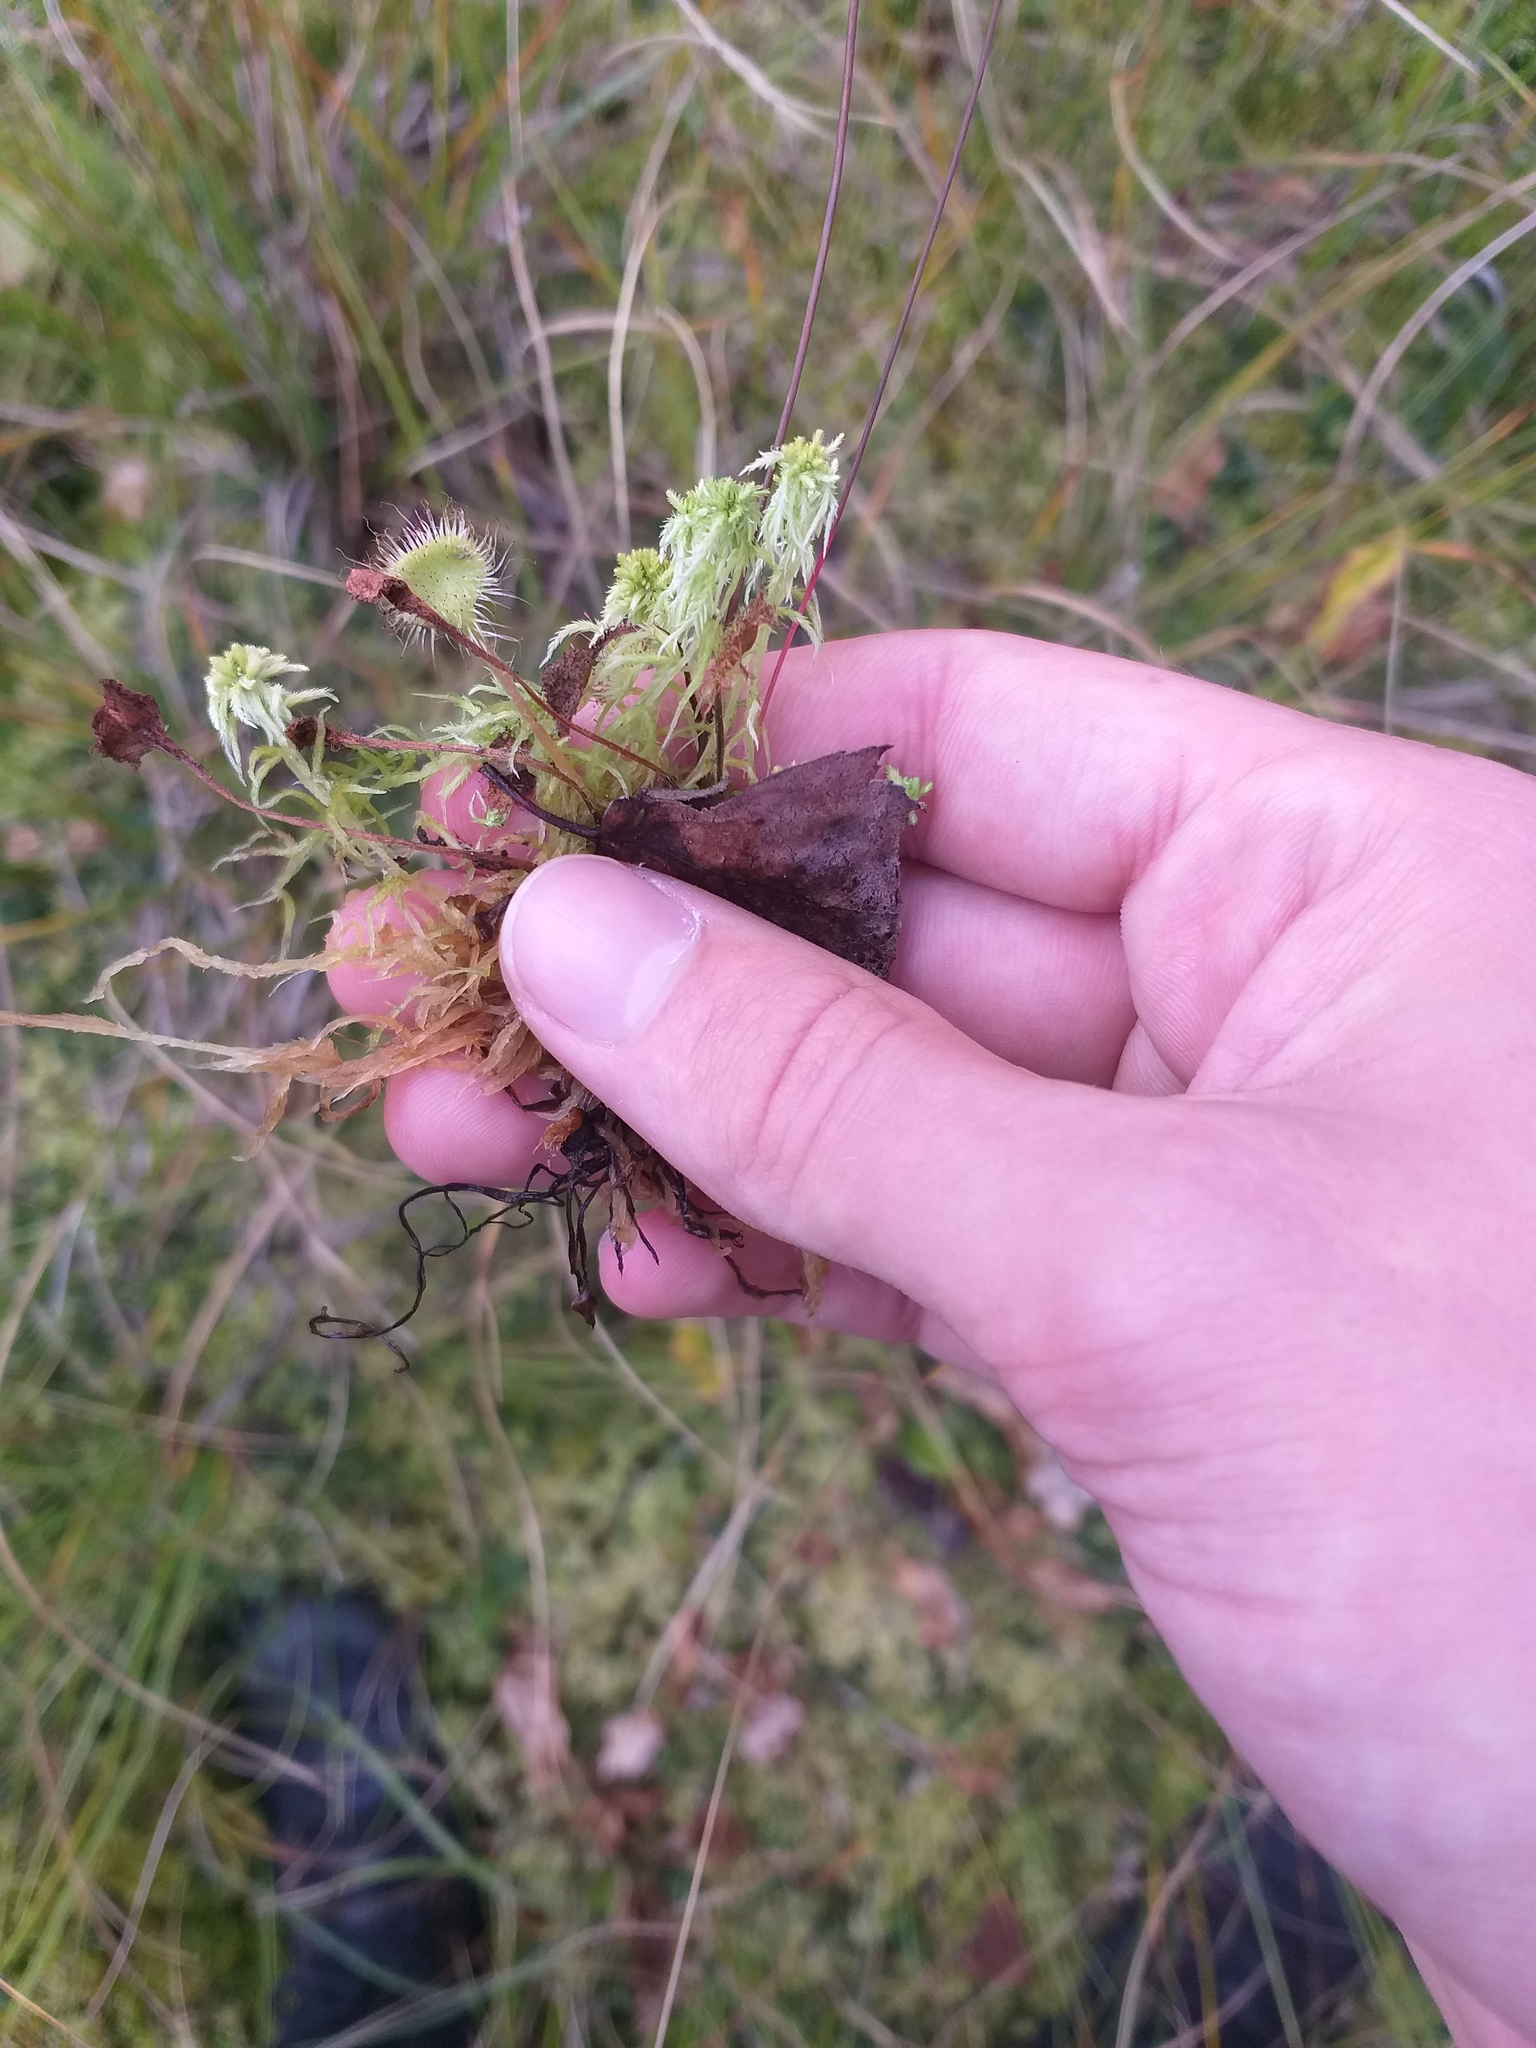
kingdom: Plantae
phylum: Tracheophyta
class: Magnoliopsida
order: Caryophyllales
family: Droseraceae
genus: Drosera
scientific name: Drosera rotundifolia
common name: Round-leaved sundew
